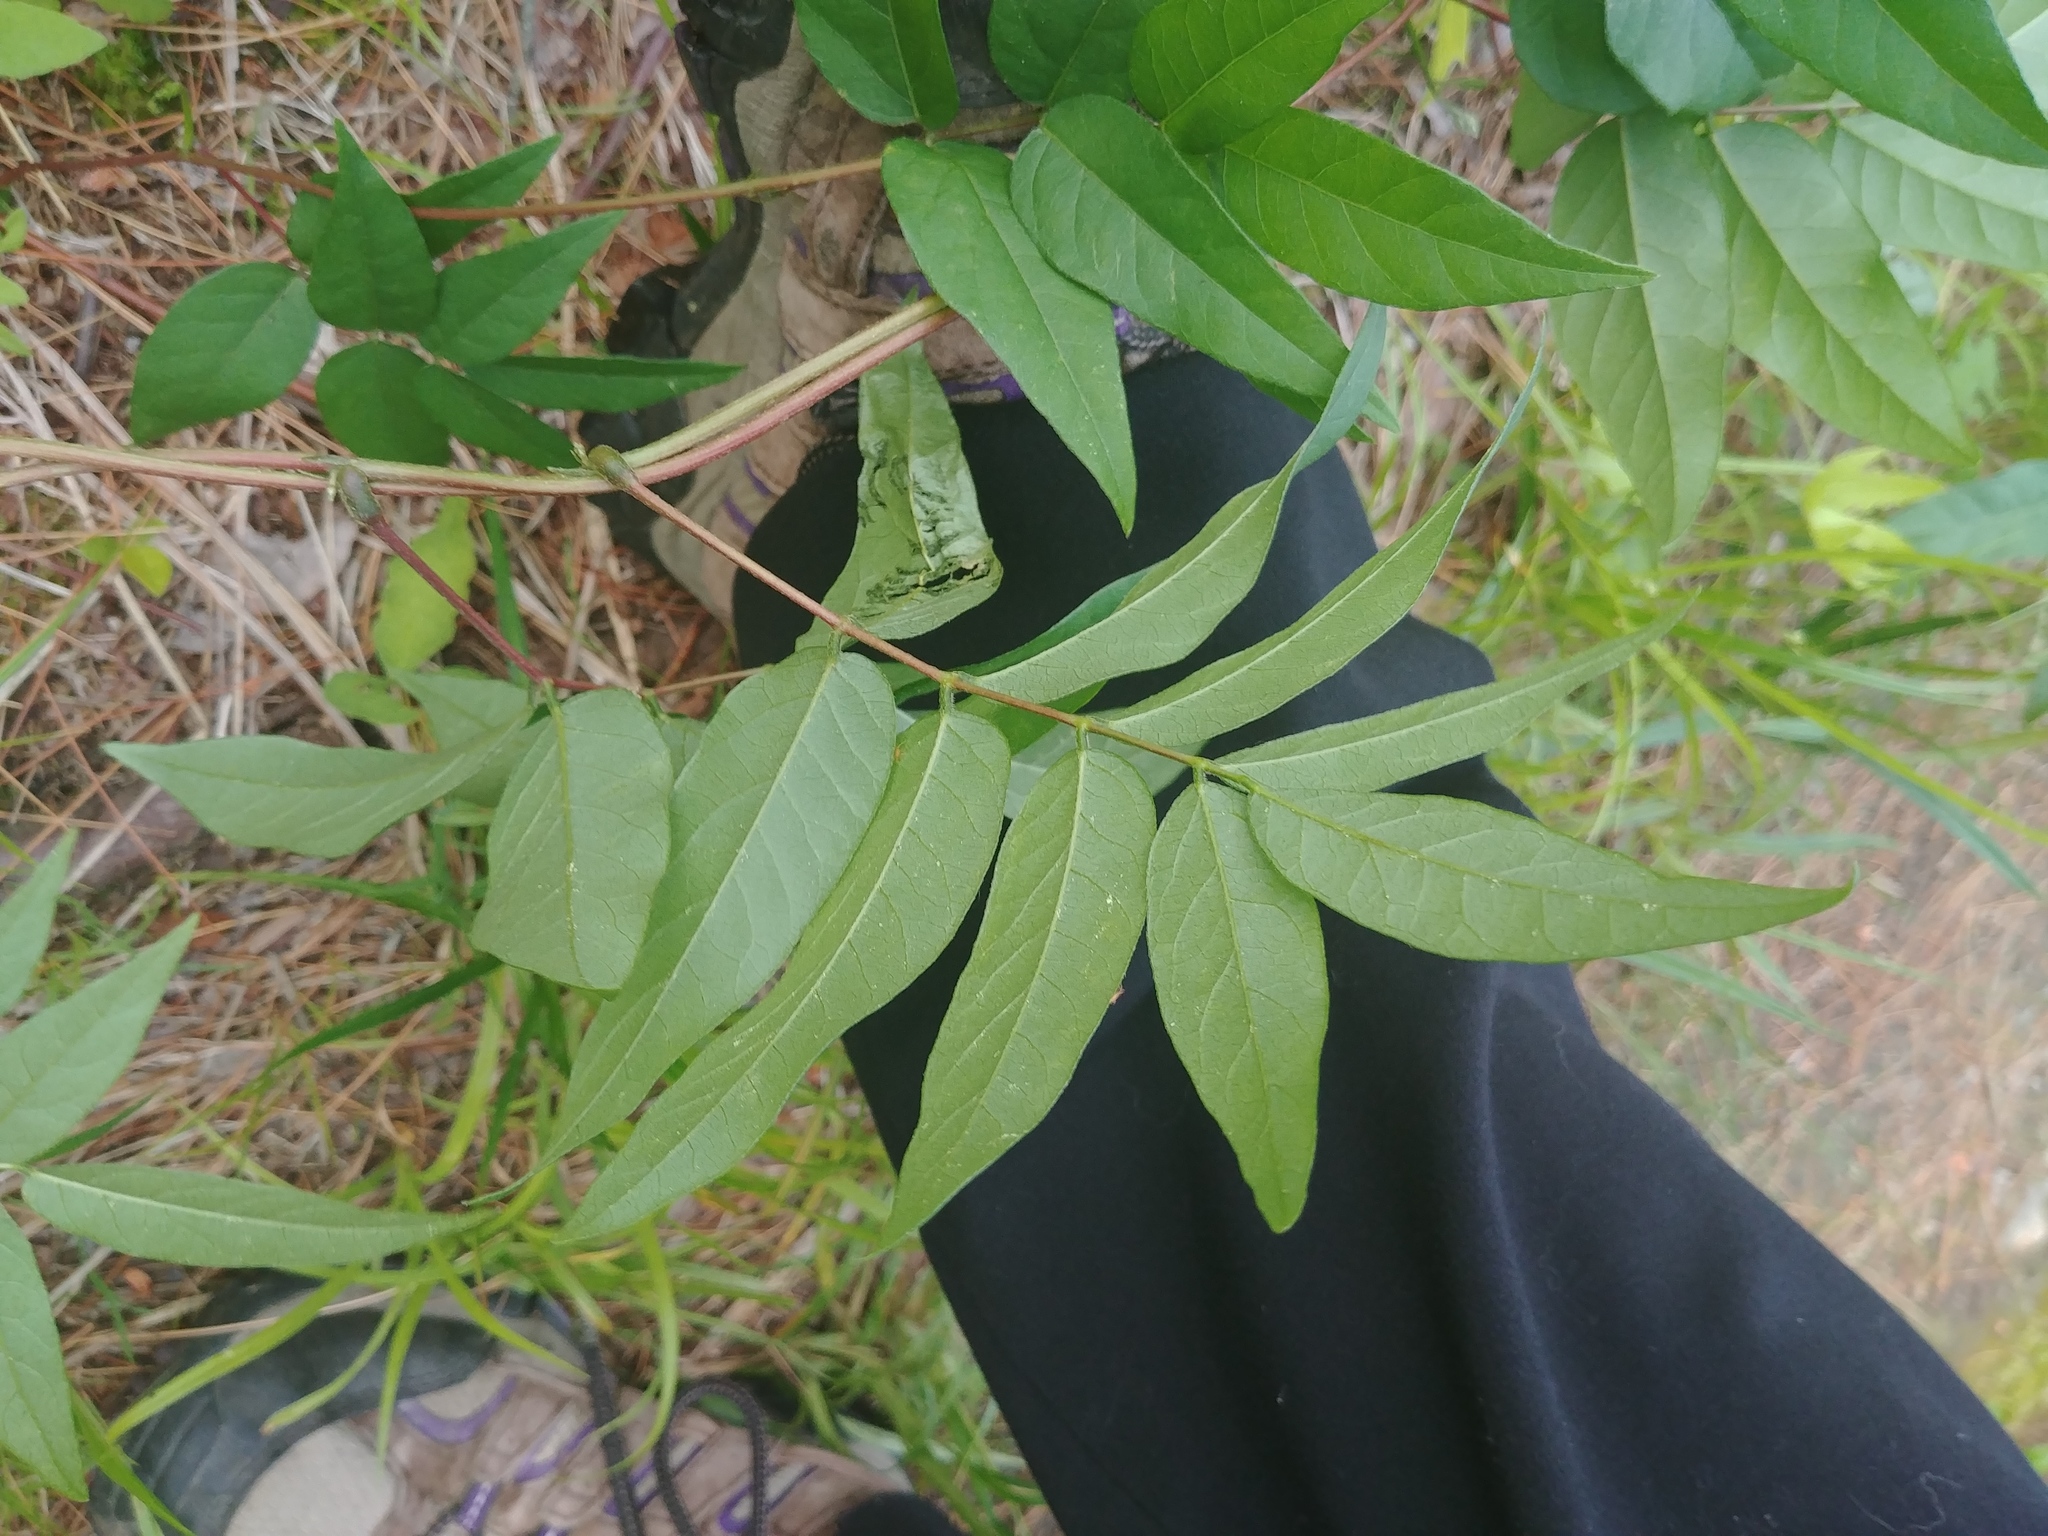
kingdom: Plantae
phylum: Tracheophyta
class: Magnoliopsida
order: Fabales
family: Fabaceae
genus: Apios
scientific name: Apios americana
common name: American potato-bean
